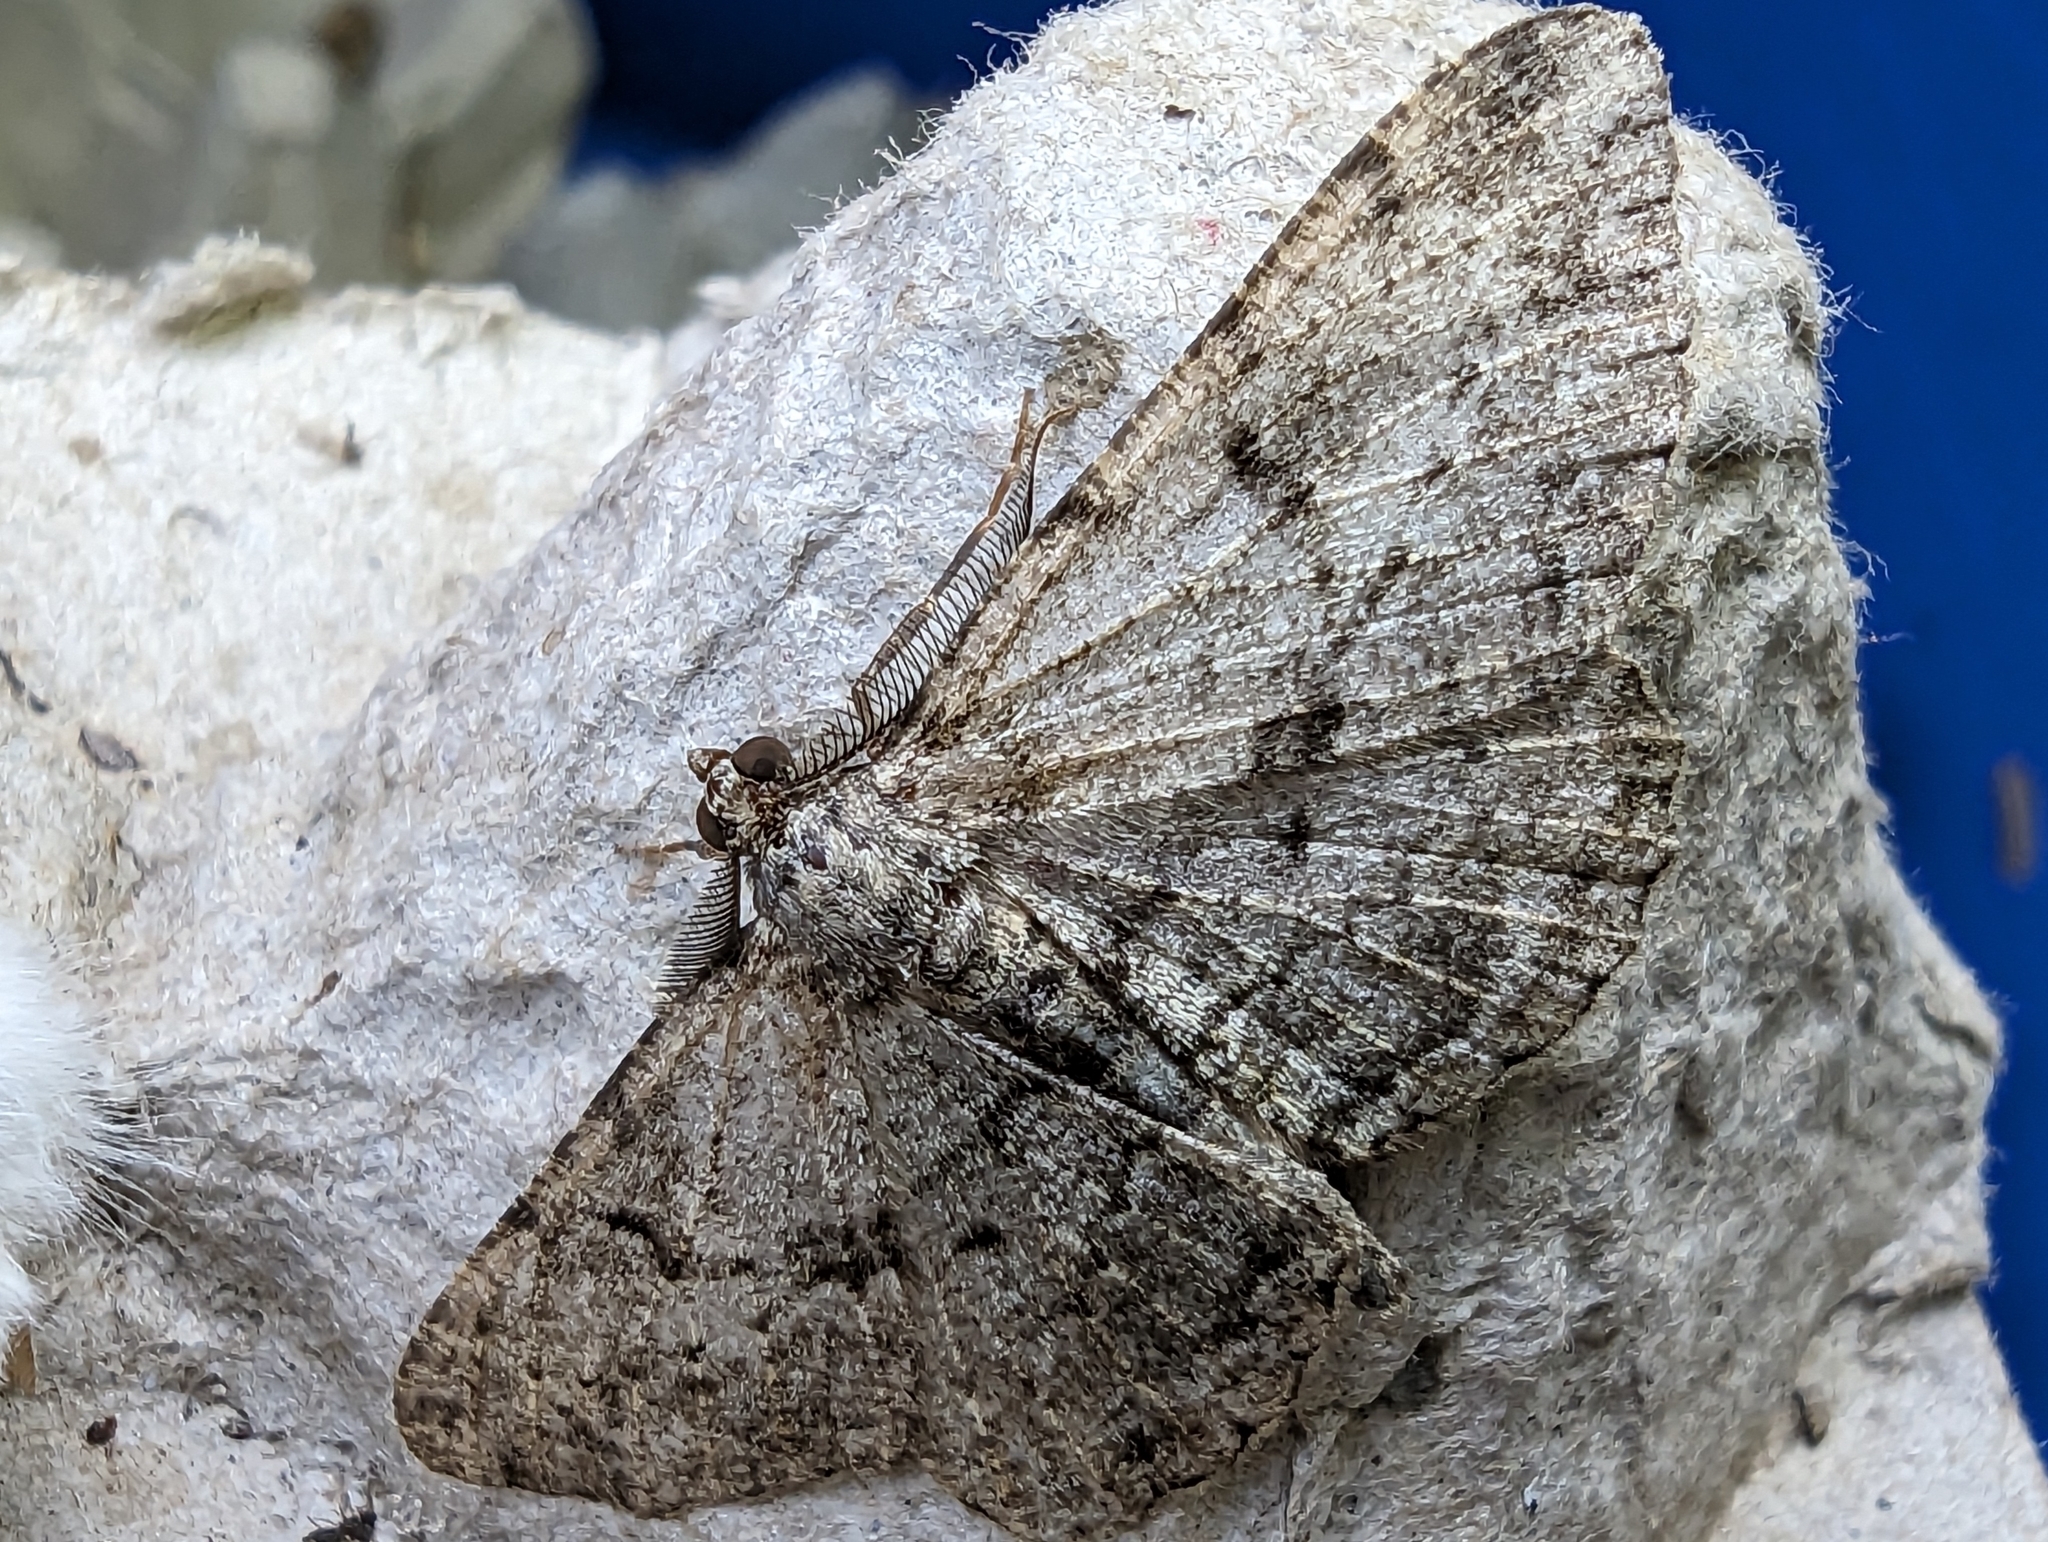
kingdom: Animalia
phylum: Arthropoda
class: Insecta
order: Lepidoptera
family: Geometridae
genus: Peribatodes
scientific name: Peribatodes rhomboidaria
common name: Willow beauty
